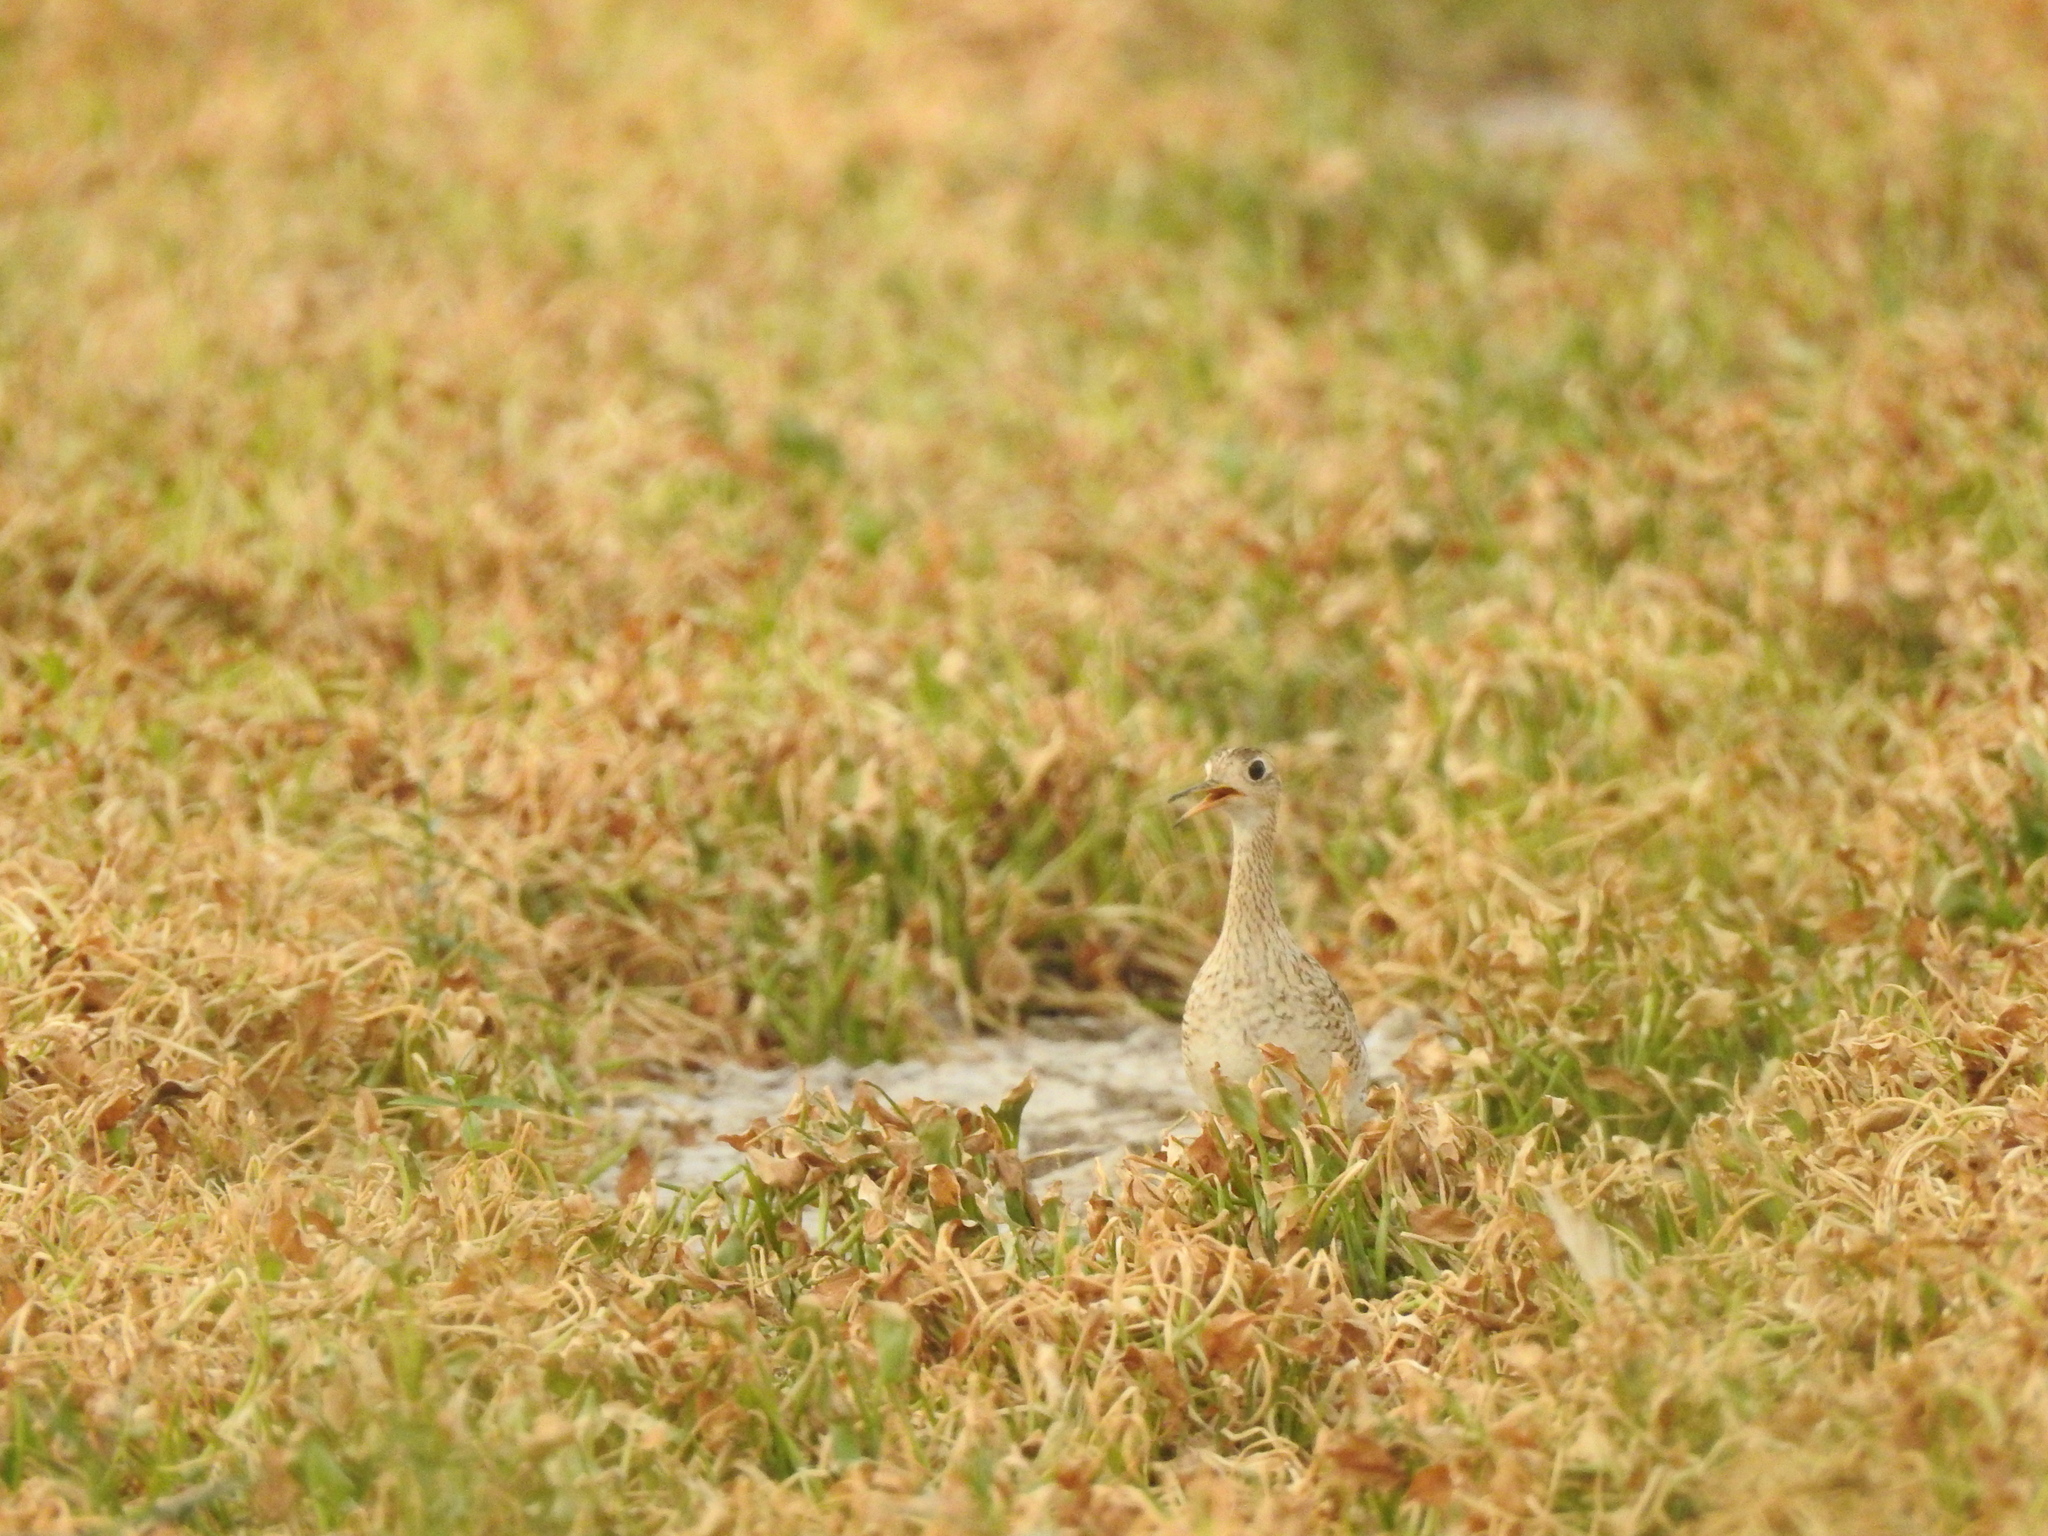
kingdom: Animalia
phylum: Chordata
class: Aves
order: Charadriiformes
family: Scolopacidae
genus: Bartramia
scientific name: Bartramia longicauda
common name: Upland sandpiper
